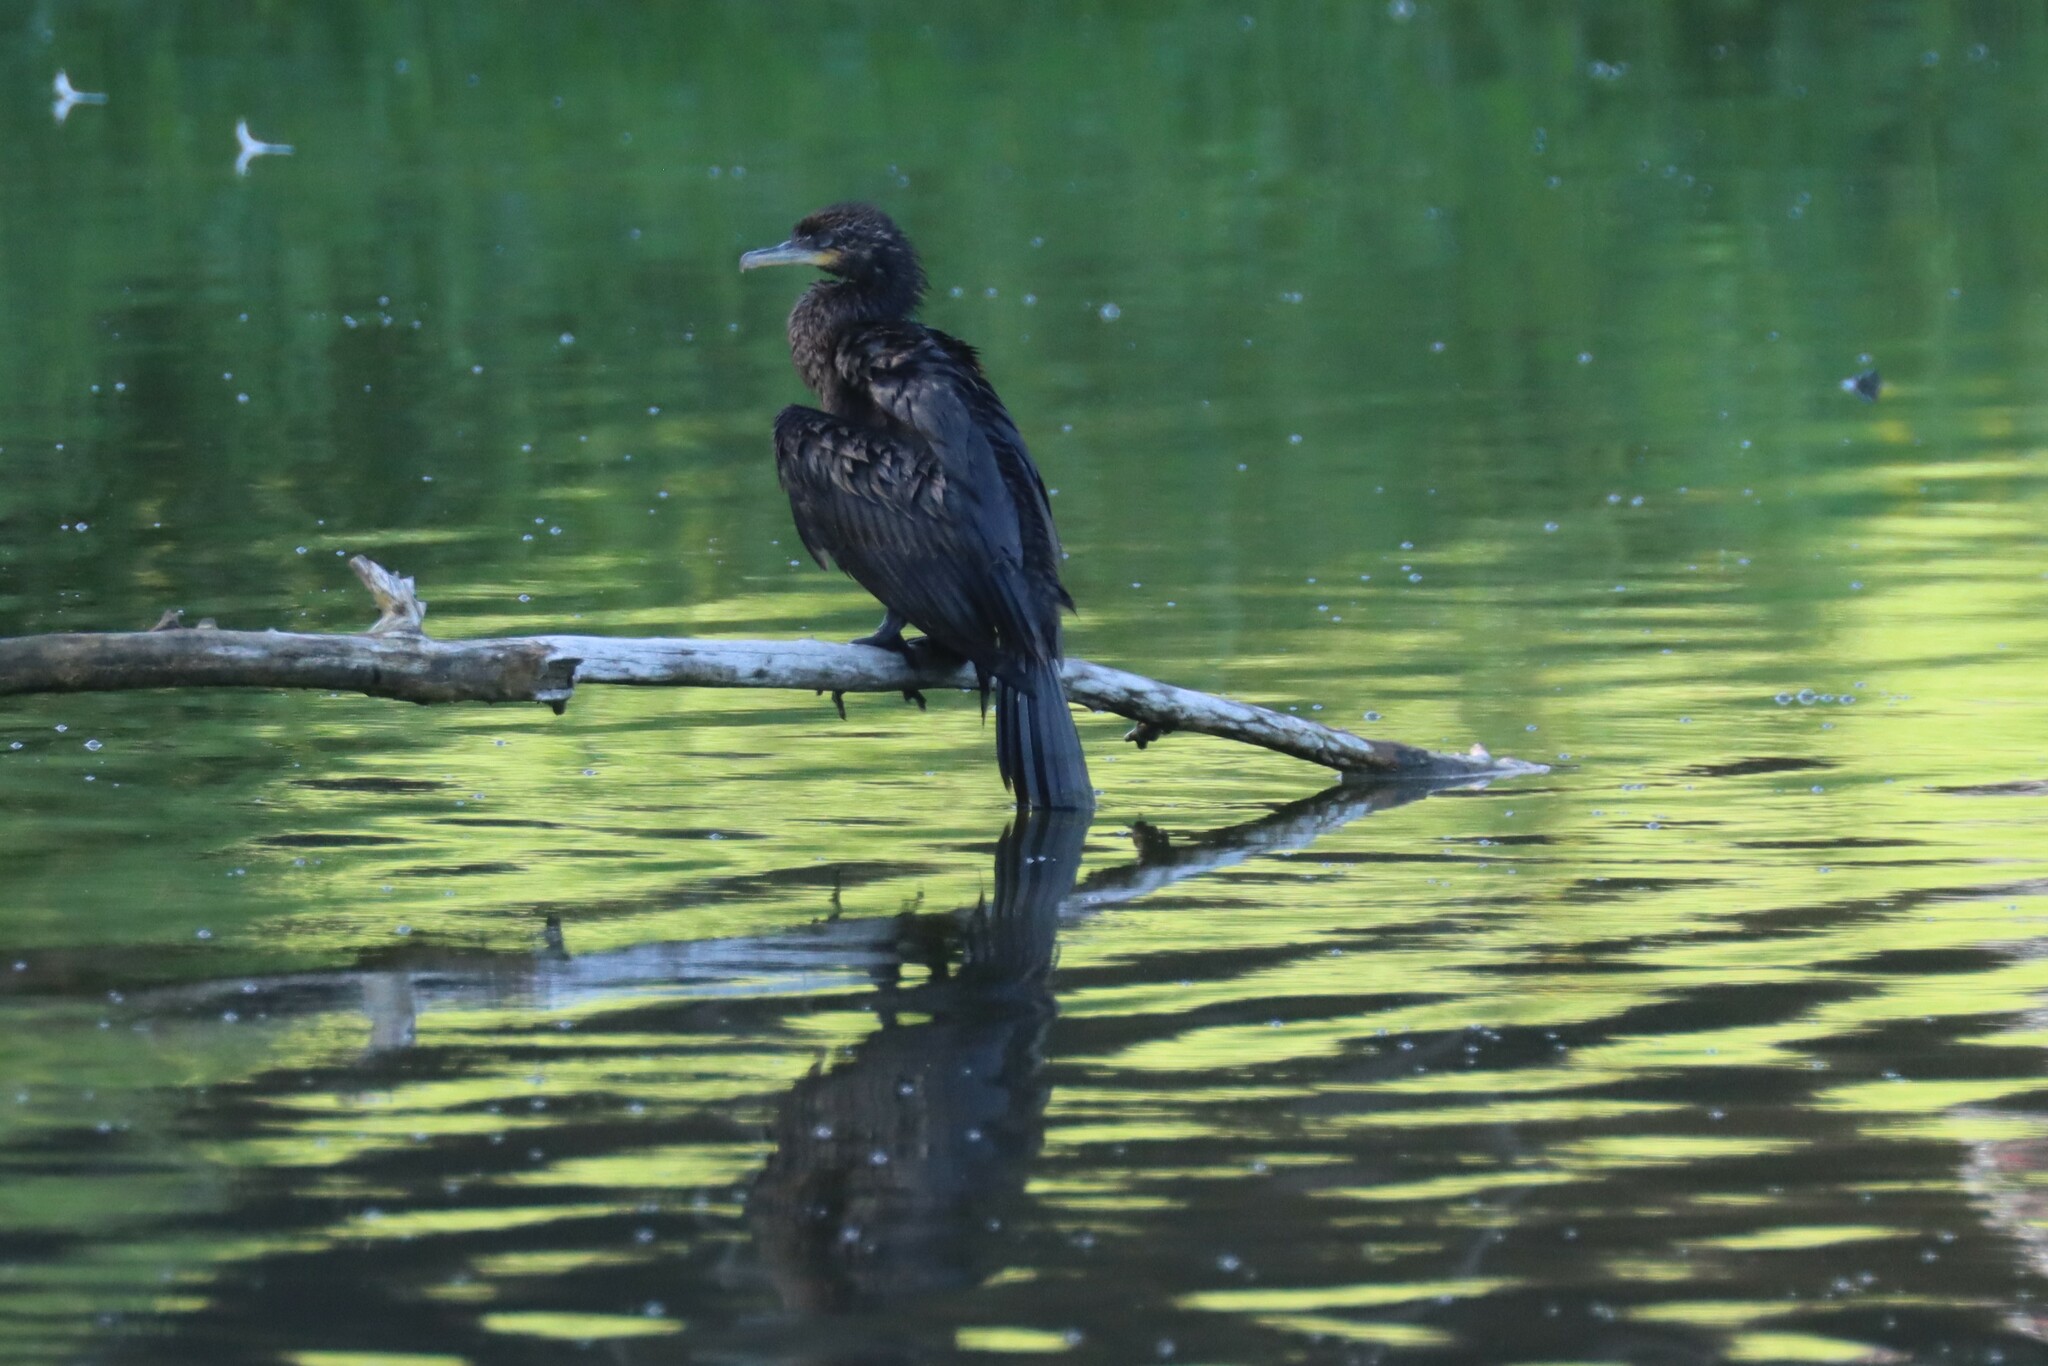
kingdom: Animalia
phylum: Chordata
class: Aves
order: Suliformes
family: Phalacrocoracidae
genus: Phalacrocorax
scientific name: Phalacrocorax brasilianus
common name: Neotropic cormorant
